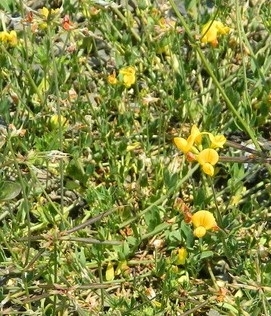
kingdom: Plantae
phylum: Tracheophyta
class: Magnoliopsida
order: Fabales
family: Fabaceae
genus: Lotus
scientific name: Lotus corniculatus
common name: Common bird's-foot-trefoil
